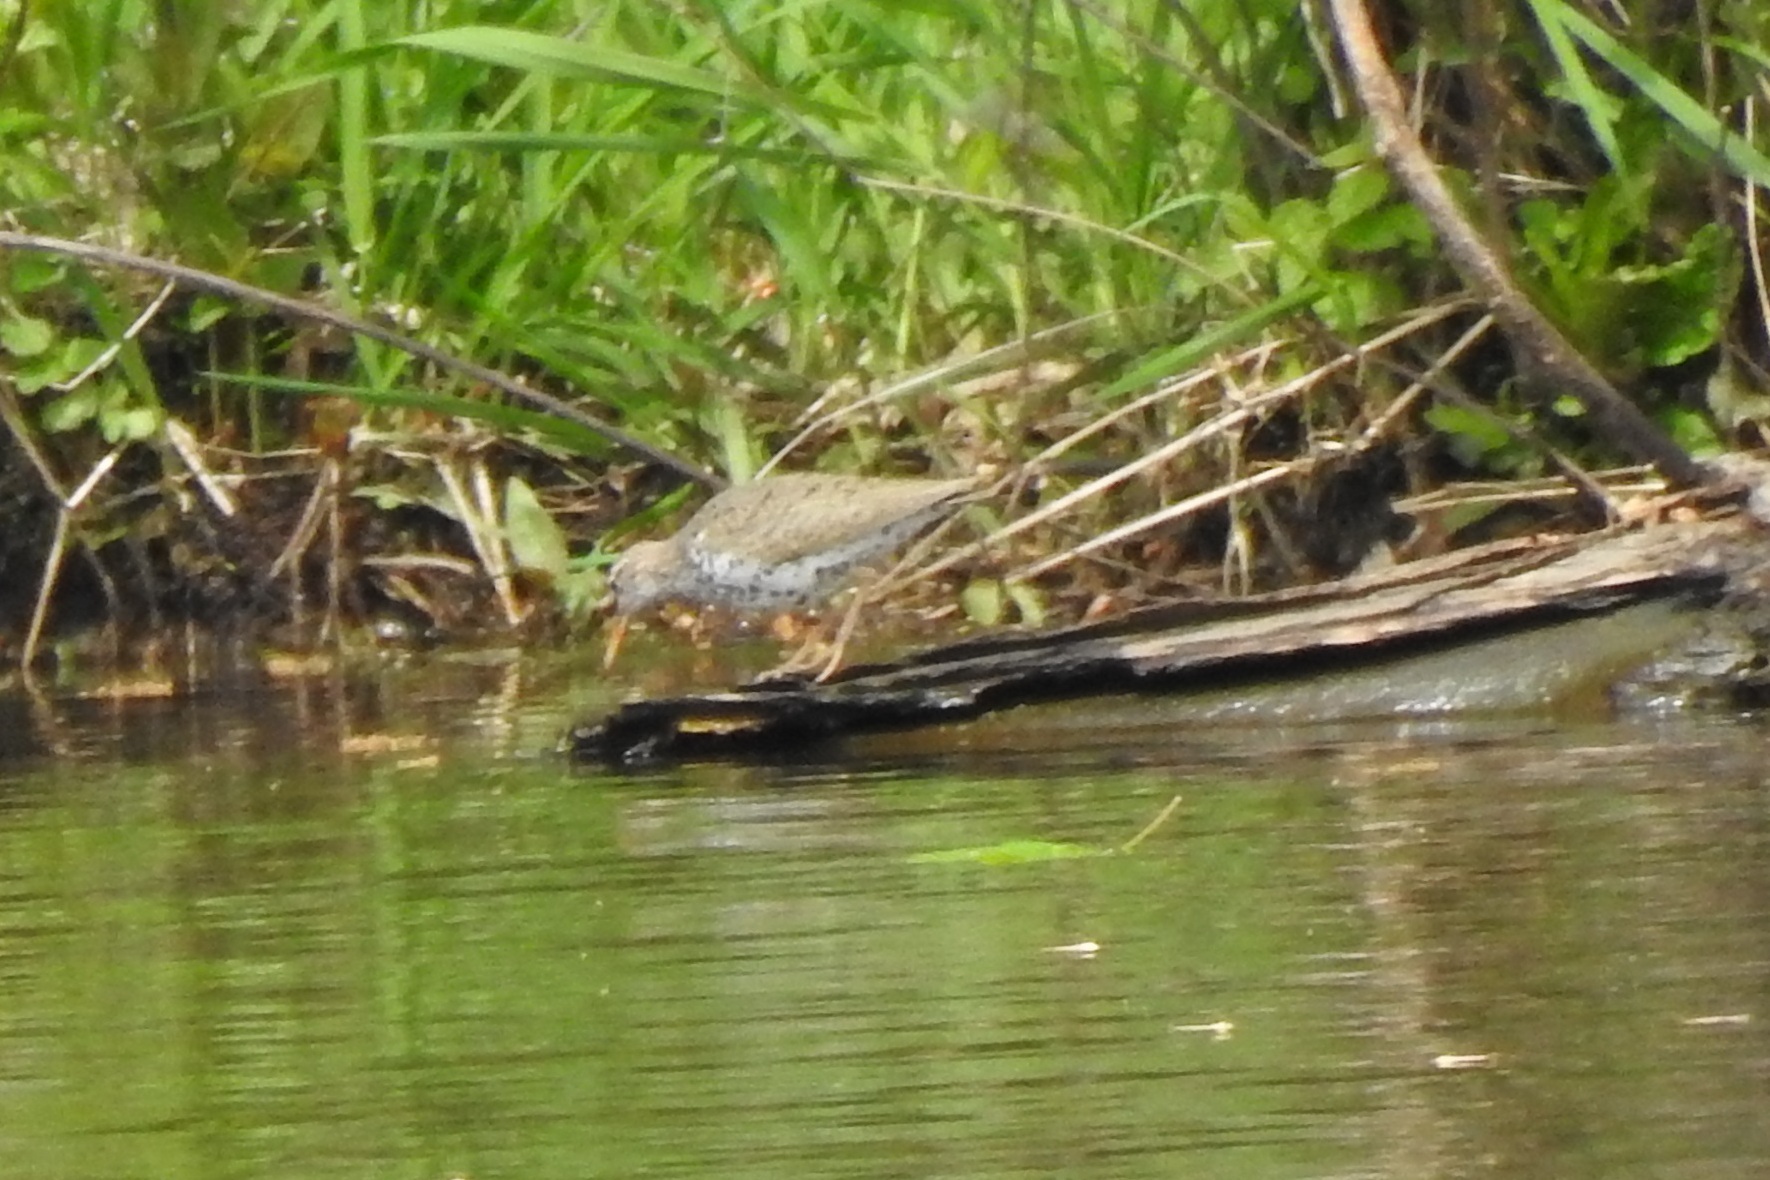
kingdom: Animalia
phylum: Chordata
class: Aves
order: Charadriiformes
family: Scolopacidae
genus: Actitis
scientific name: Actitis macularius
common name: Spotted sandpiper
